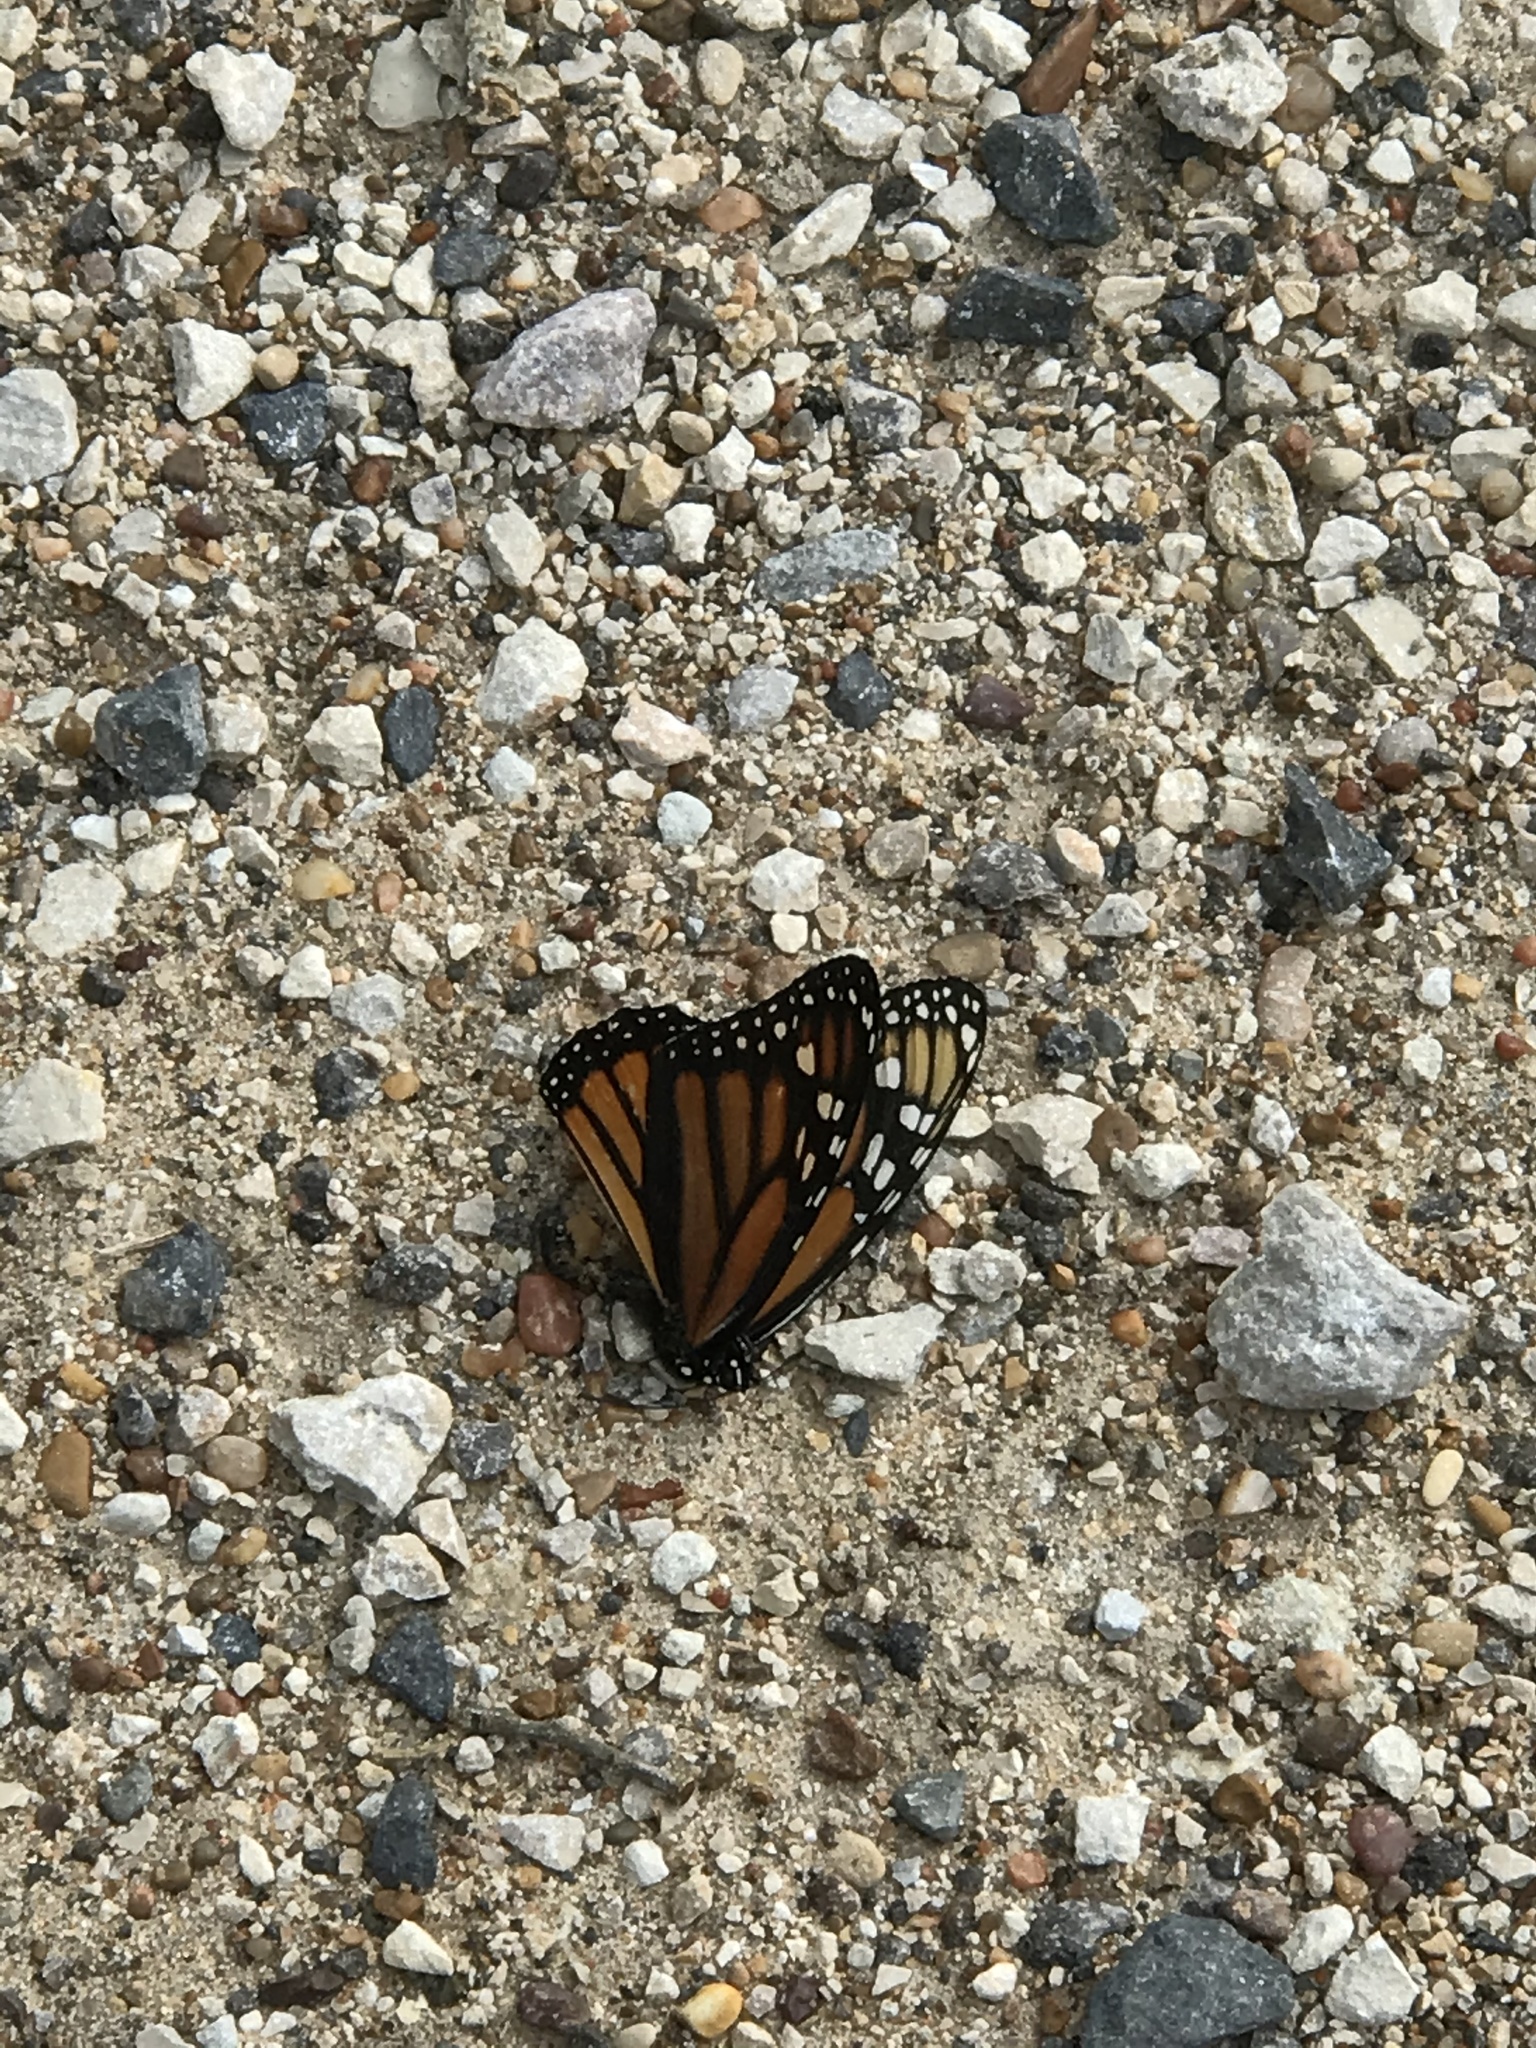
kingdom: Animalia
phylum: Arthropoda
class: Insecta
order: Lepidoptera
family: Nymphalidae
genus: Danaus
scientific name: Danaus plexippus
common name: Monarch
